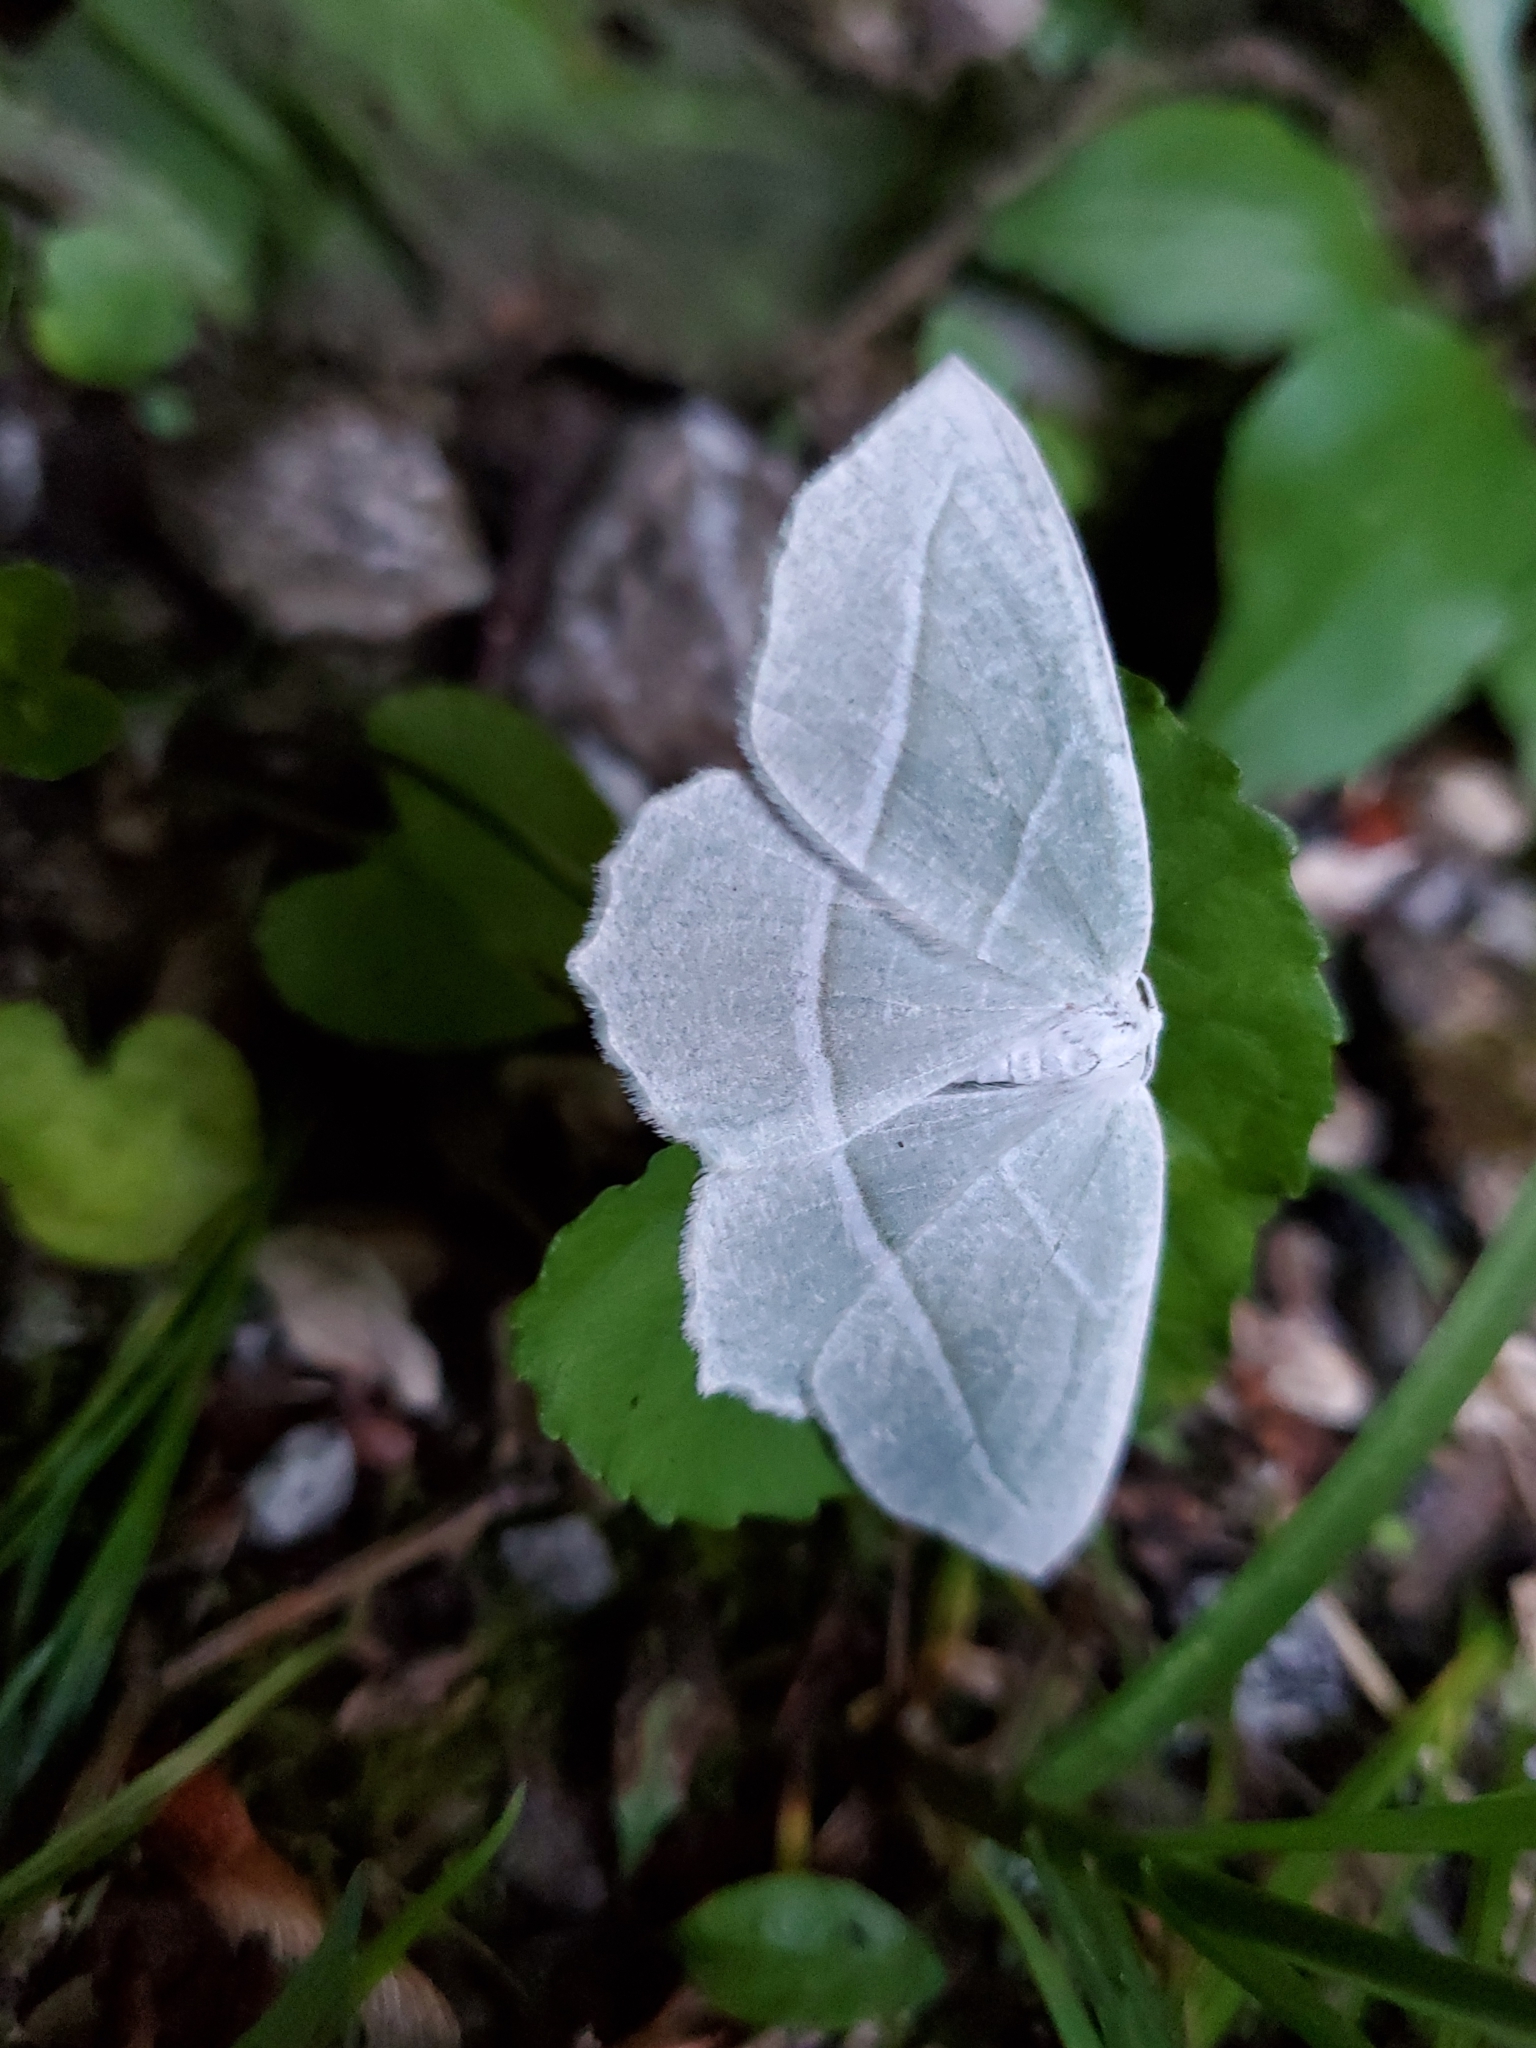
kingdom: Animalia
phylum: Arthropoda
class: Insecta
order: Lepidoptera
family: Geometridae
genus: Campaea
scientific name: Campaea perlata
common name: Fringed looper
